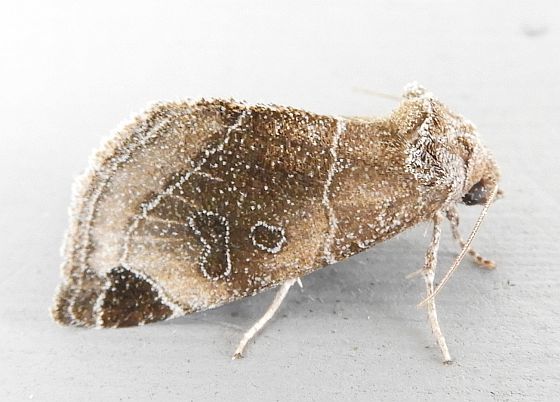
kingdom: Animalia
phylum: Arthropoda
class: Insecta
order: Lepidoptera
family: Noctuidae
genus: Plagiomimicus
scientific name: Plagiomimicus curiosum
